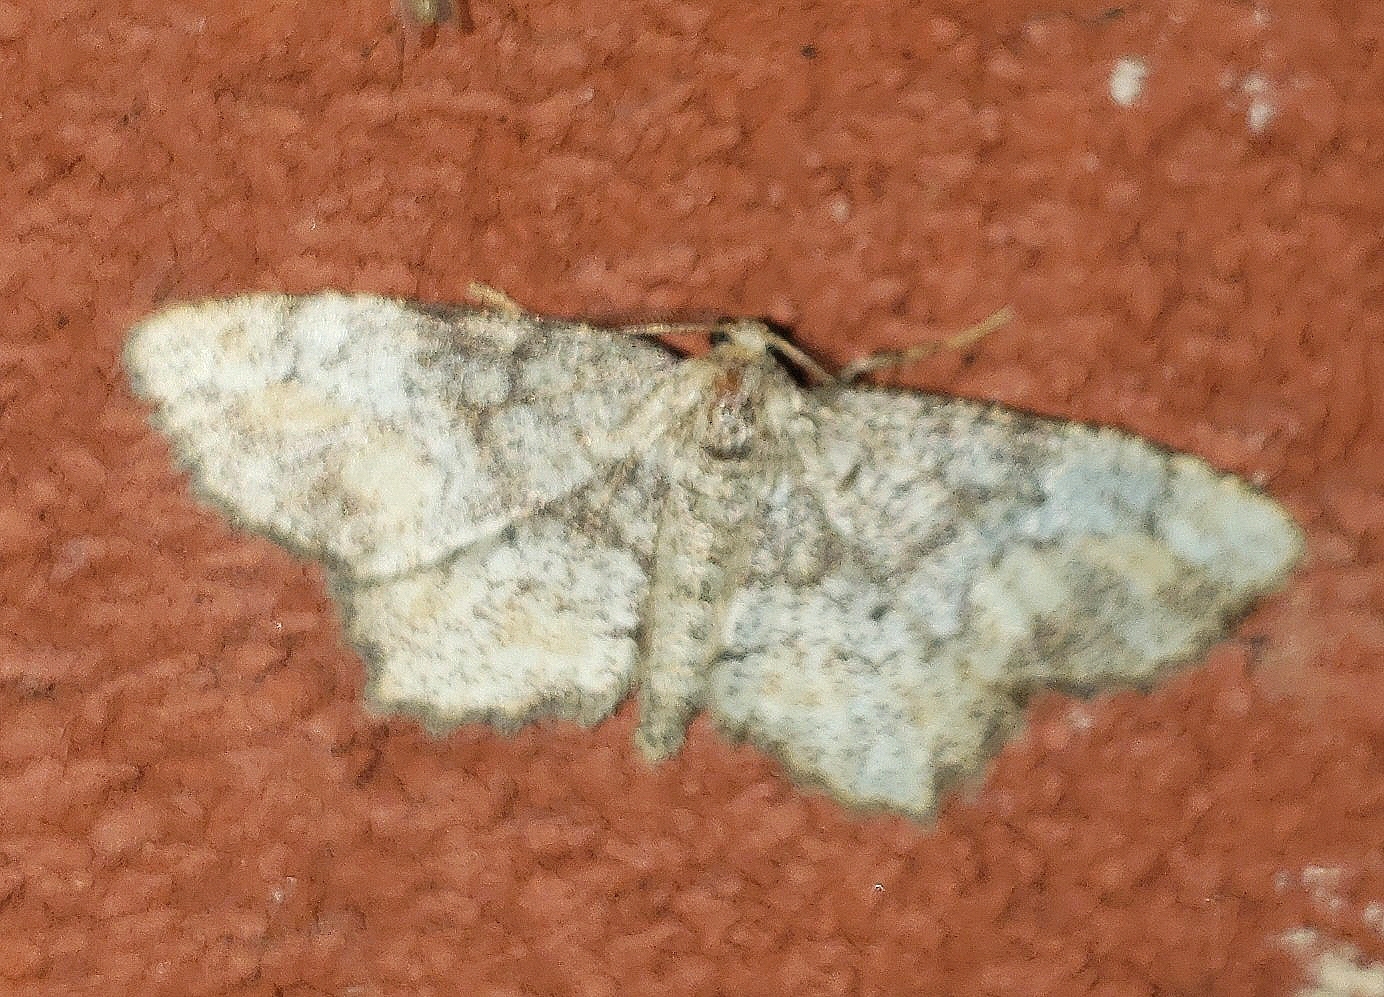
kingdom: Animalia
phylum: Arthropoda
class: Insecta
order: Lepidoptera
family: Geometridae
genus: Hypagyrtis
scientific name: Hypagyrtis unipunctata
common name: One-spotted variant
